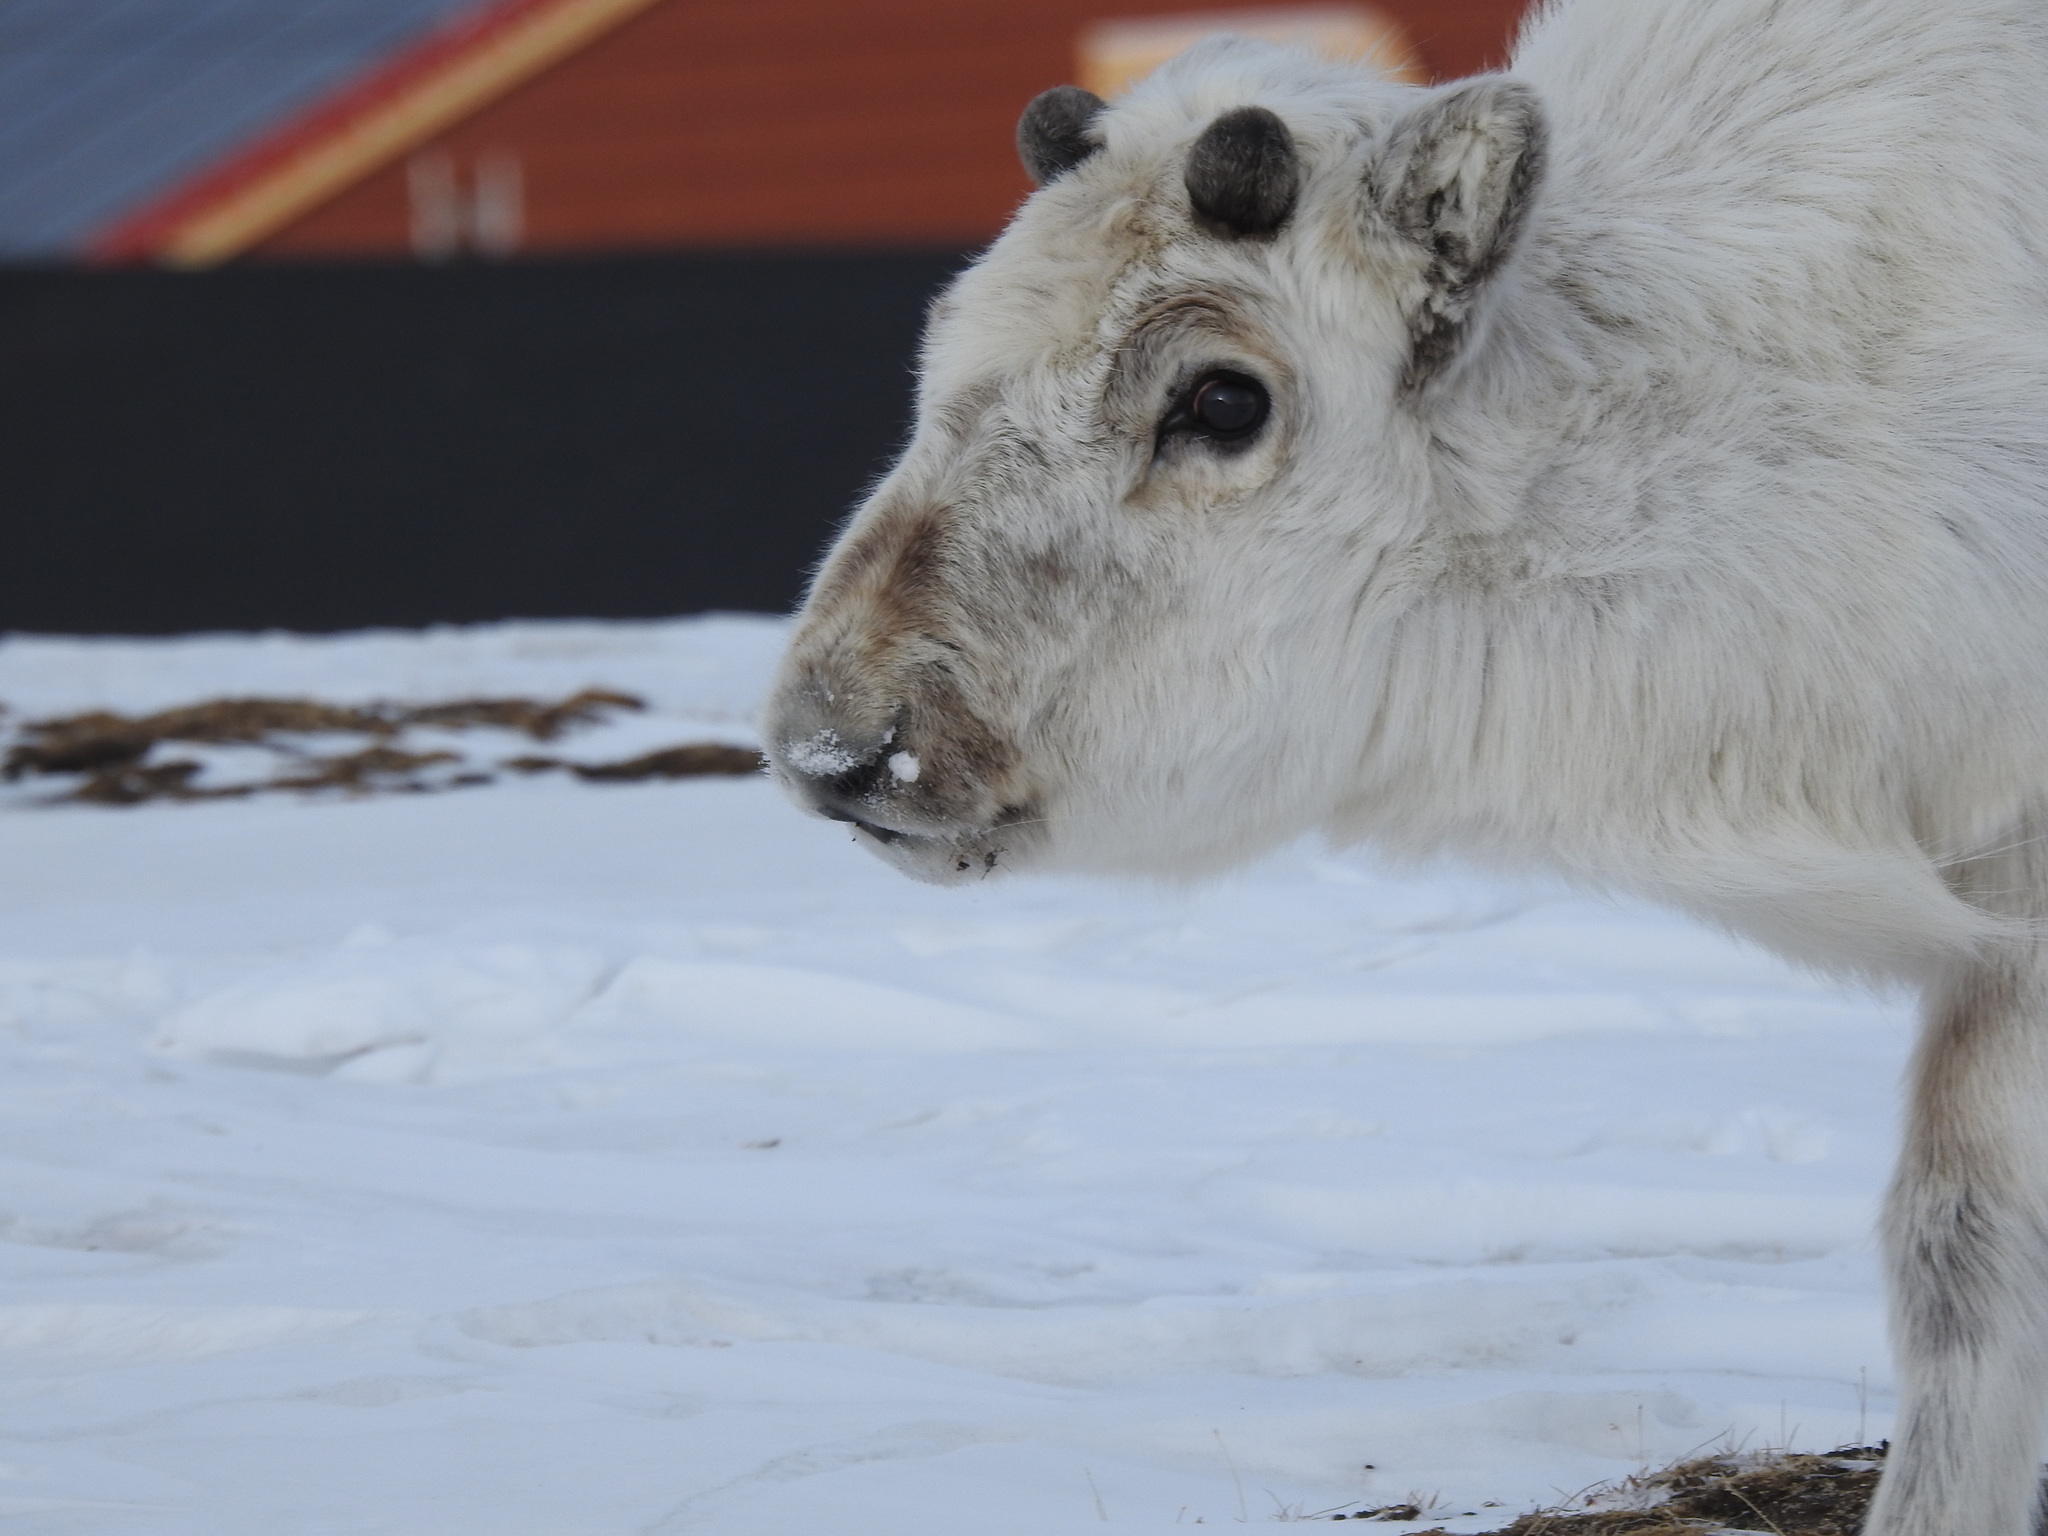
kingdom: Animalia
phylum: Chordata
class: Mammalia
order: Artiodactyla
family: Cervidae
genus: Rangifer
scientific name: Rangifer tarandus
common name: Reindeer
